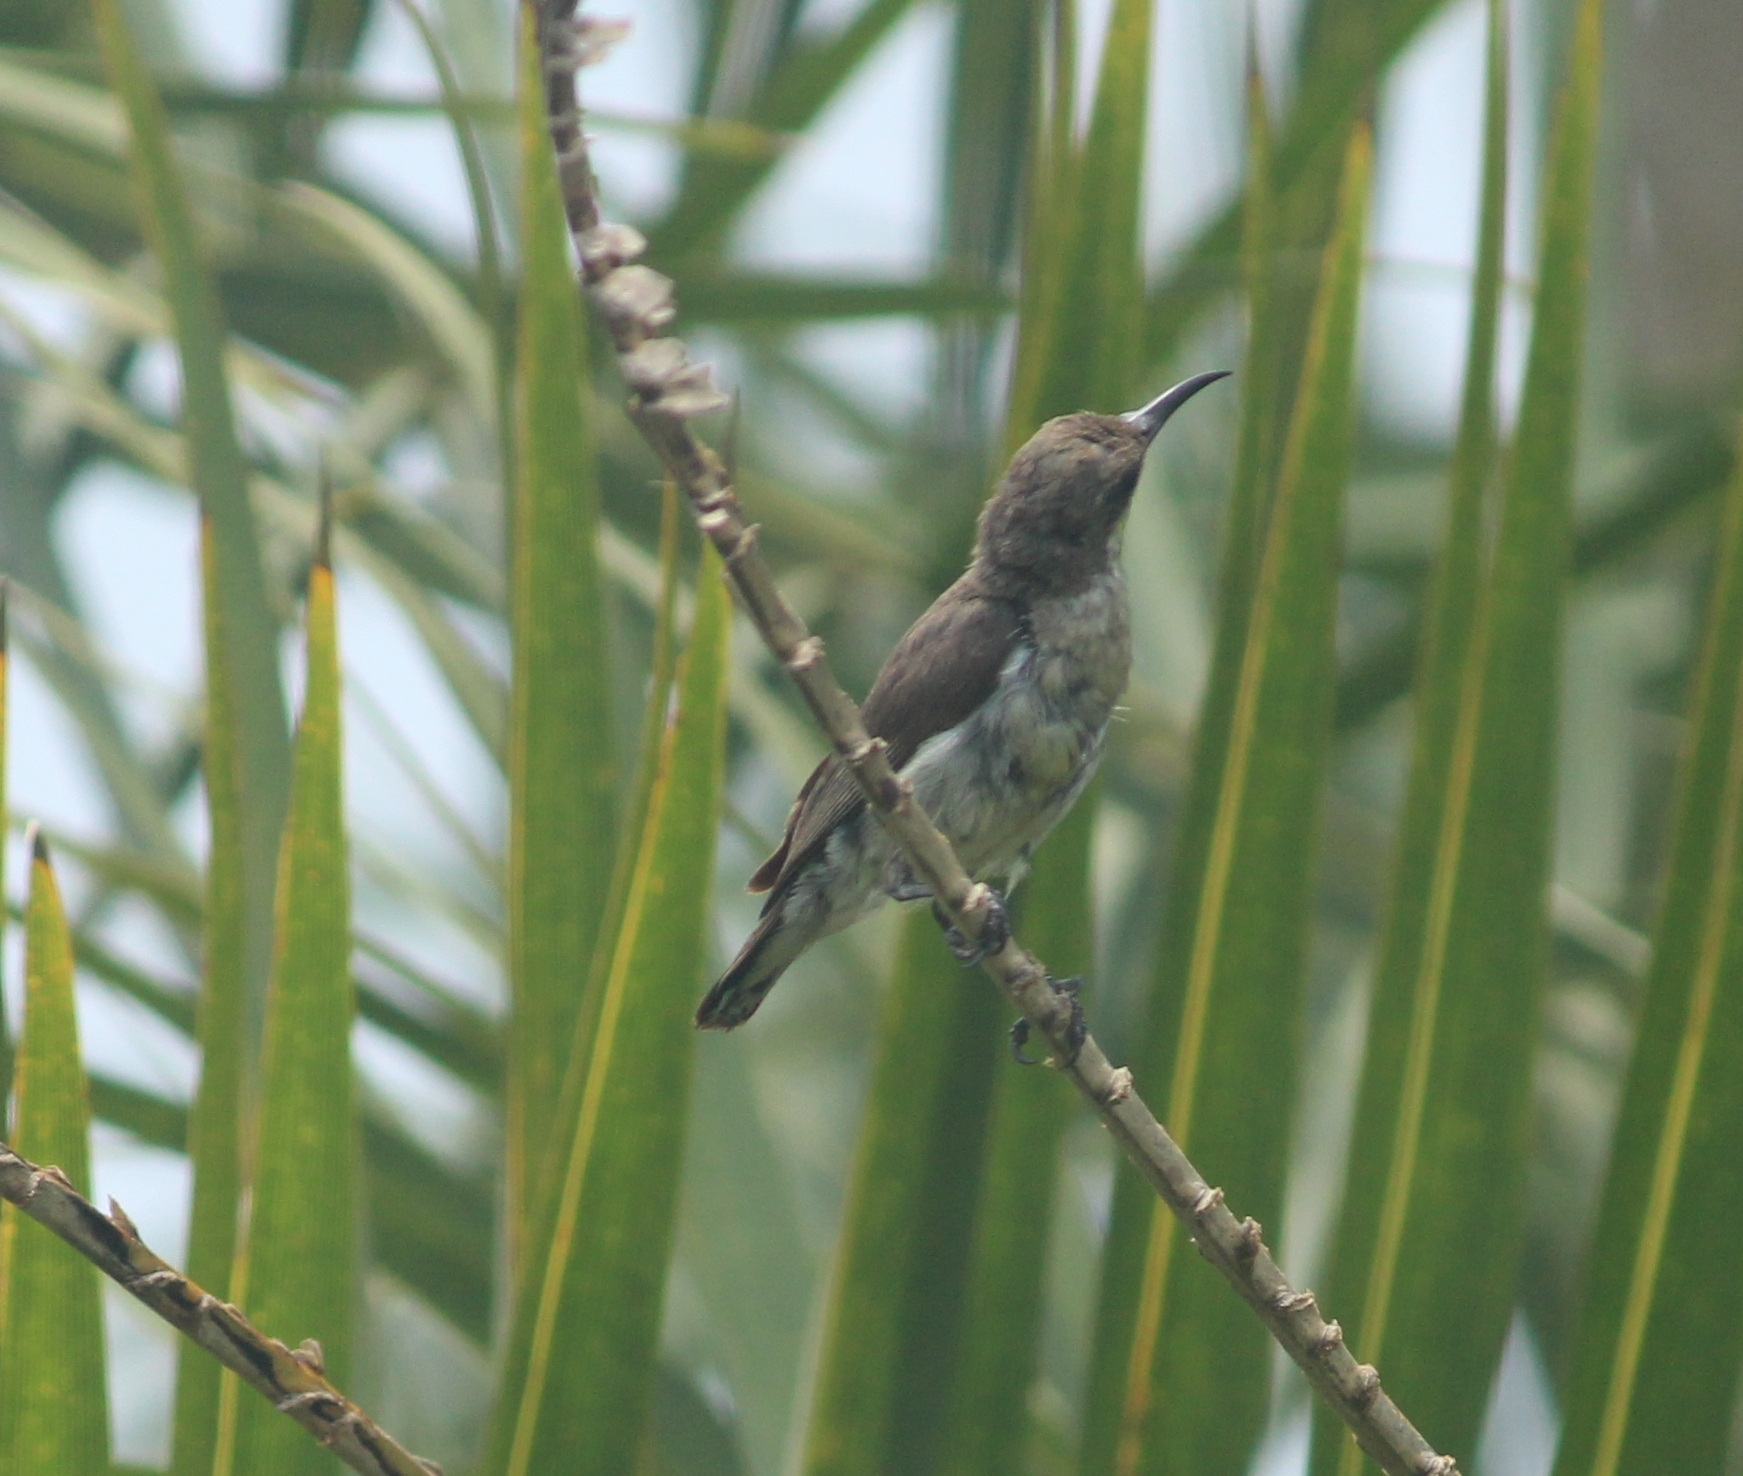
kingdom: Animalia
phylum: Chordata
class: Aves
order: Passeriformes
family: Nectariniidae
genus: Cinnyris
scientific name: Cinnyris asiaticus
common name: Purple sunbird
